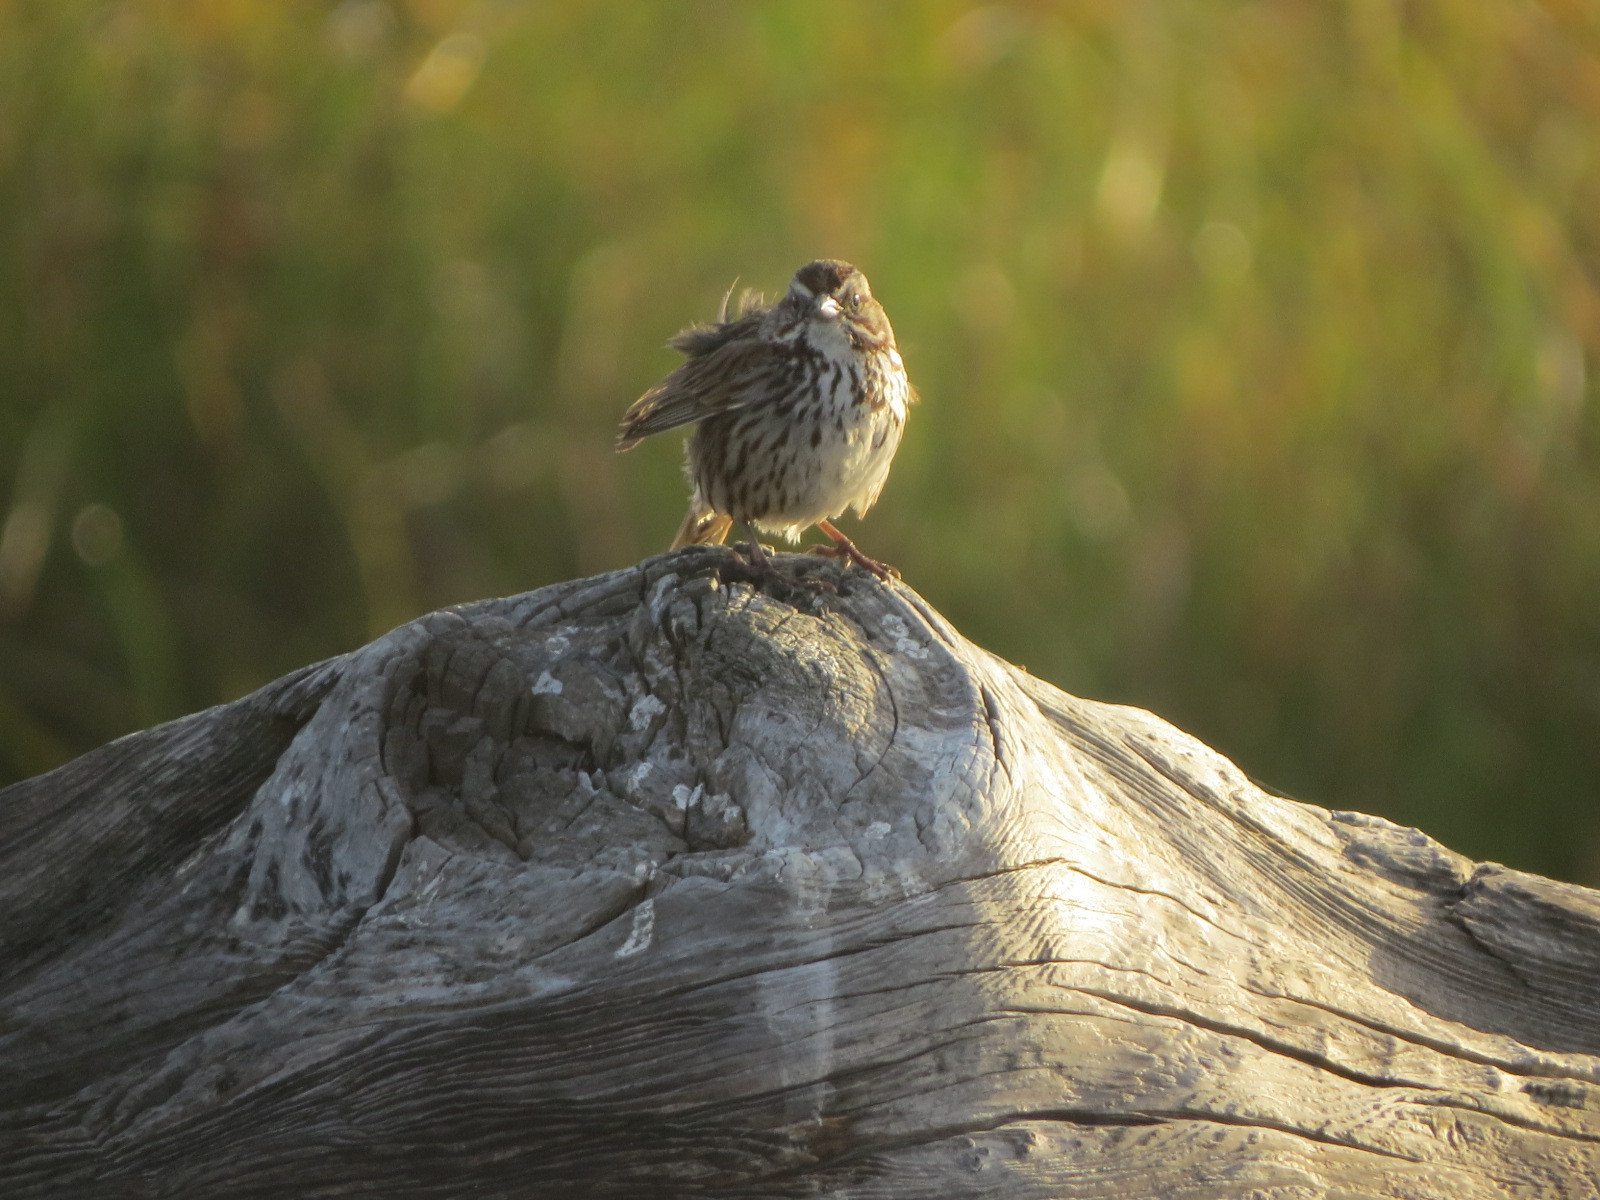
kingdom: Animalia
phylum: Chordata
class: Aves
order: Passeriformes
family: Passerellidae
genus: Melospiza
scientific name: Melospiza melodia
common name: Song sparrow
